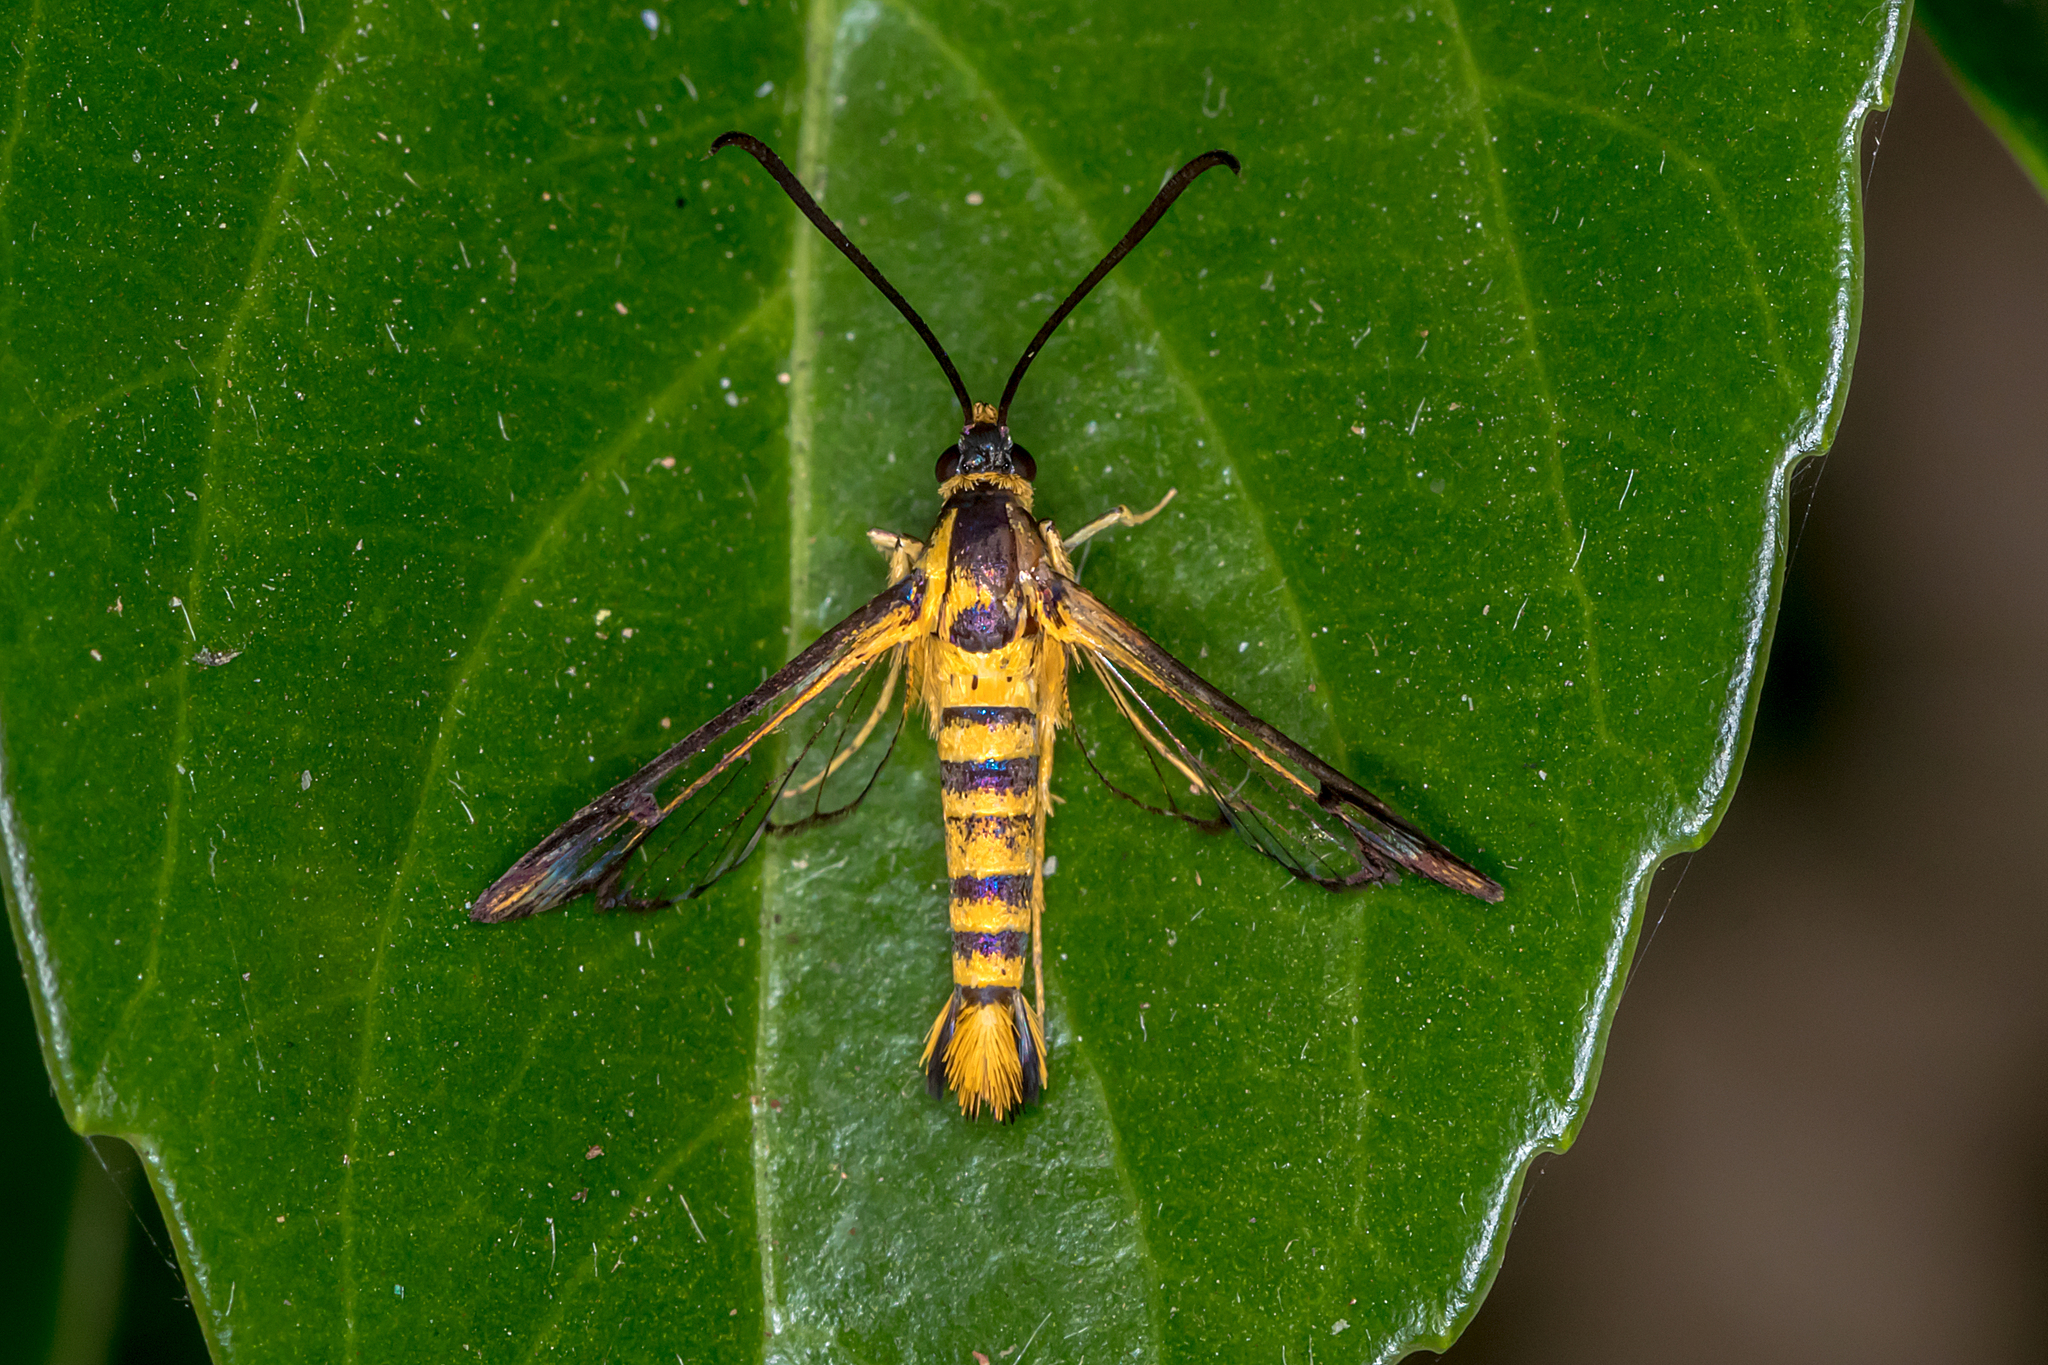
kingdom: Animalia
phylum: Arthropoda
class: Insecta
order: Lepidoptera
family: Sesiidae
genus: Paranthrenella
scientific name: Paranthrenella chrysophanes
